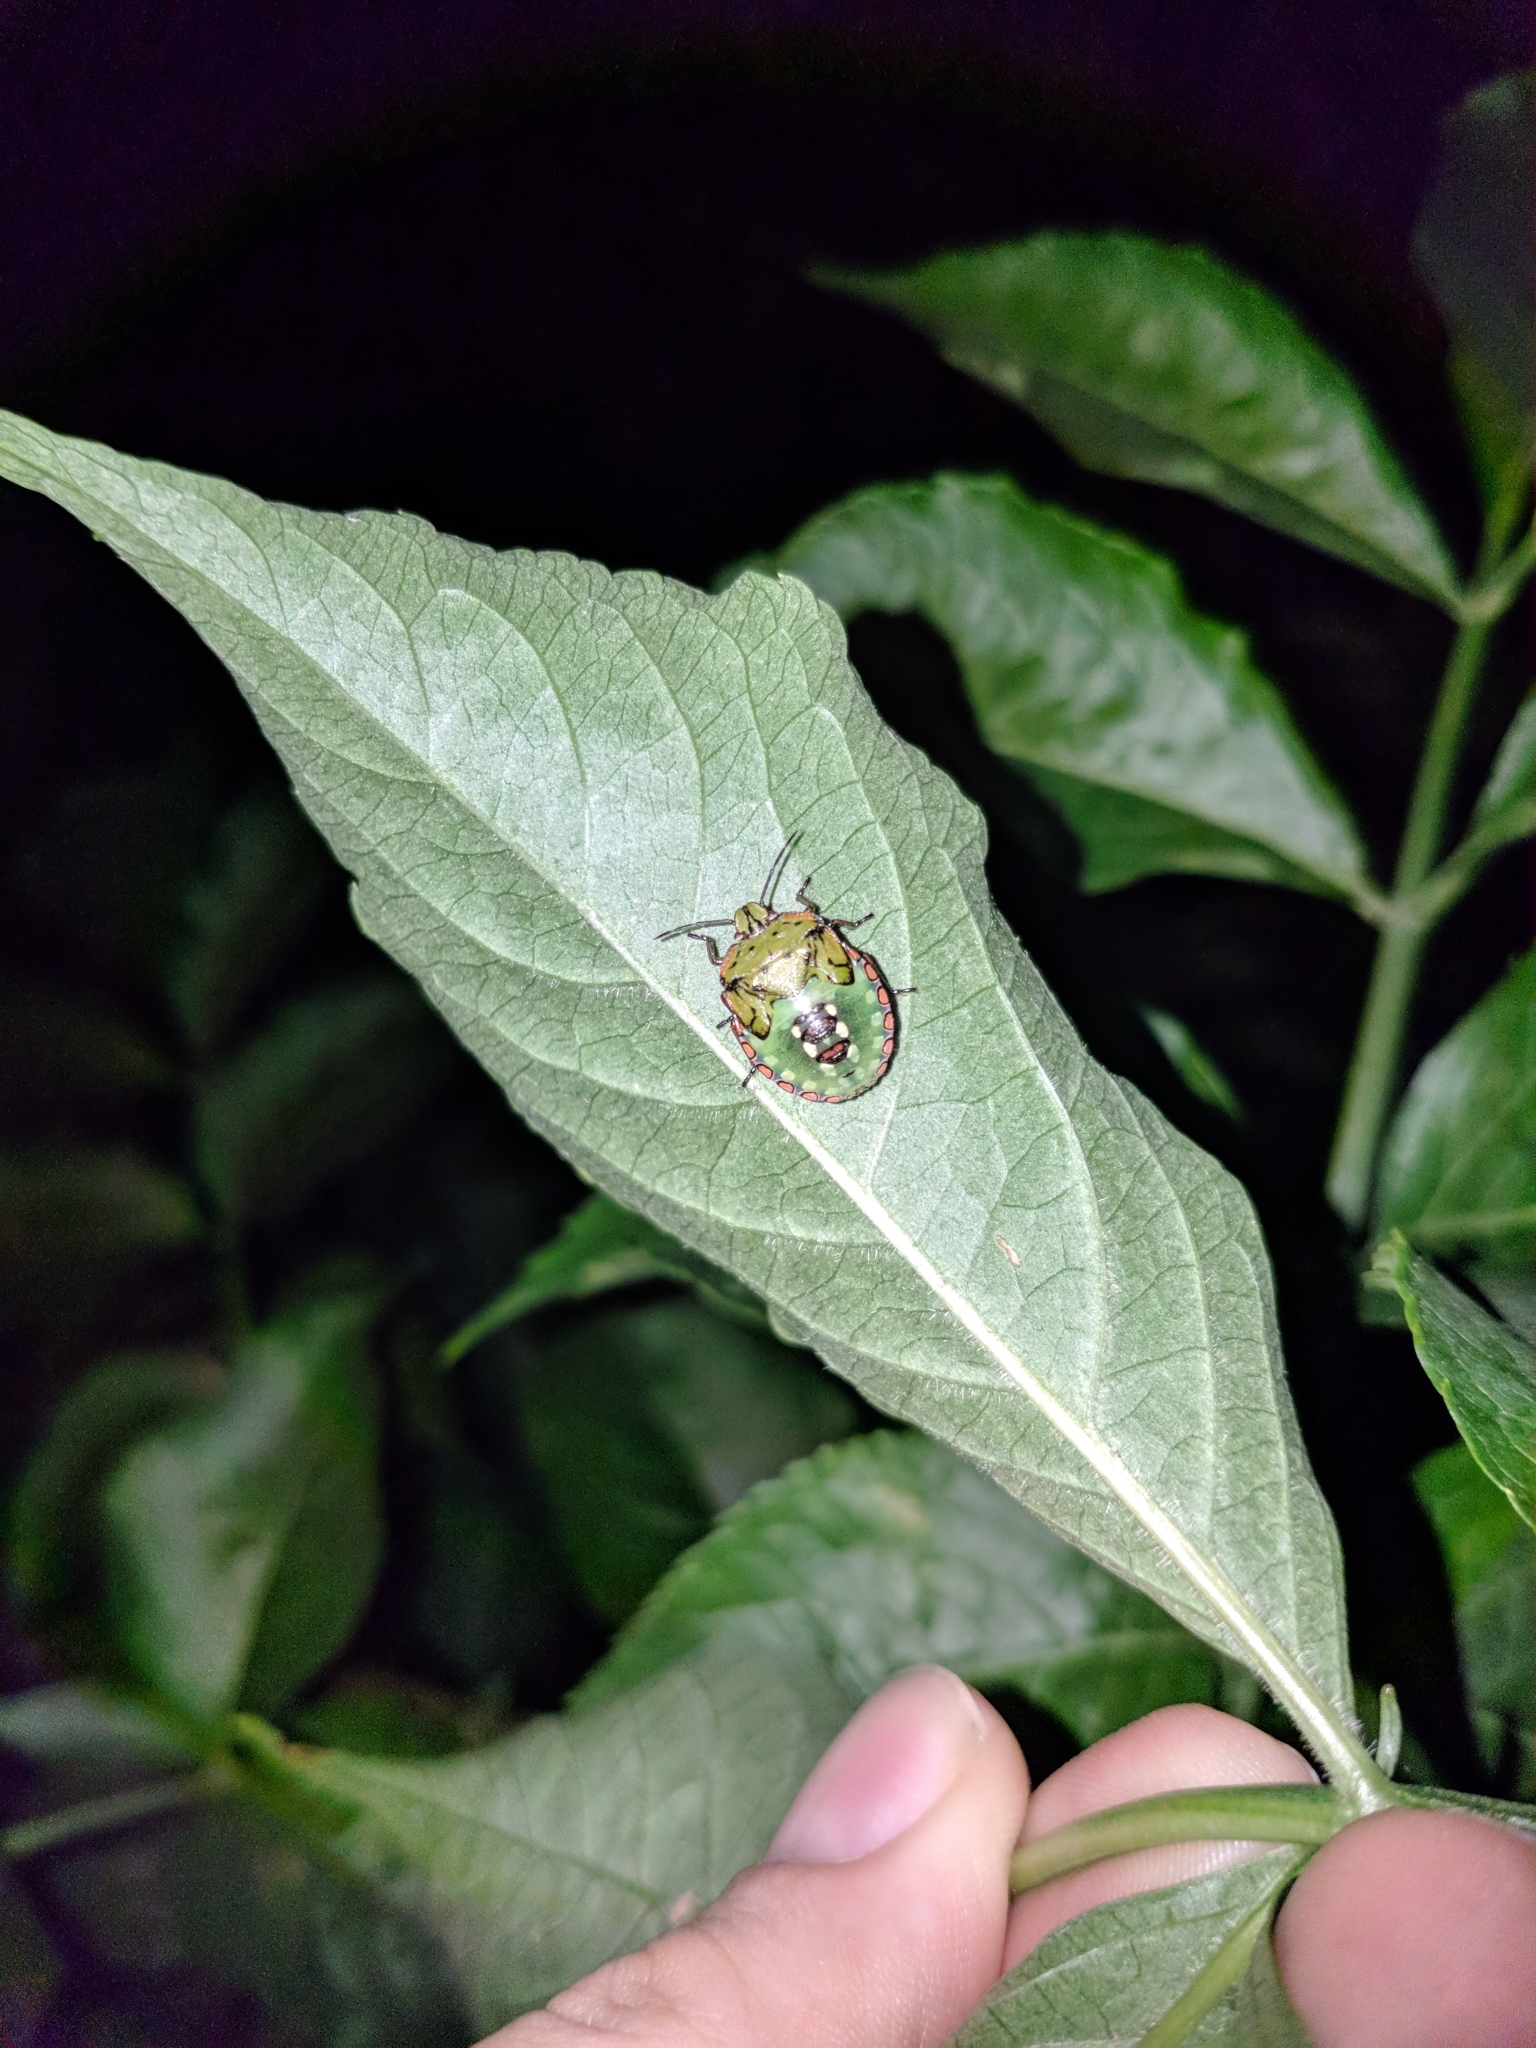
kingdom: Animalia
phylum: Arthropoda
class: Insecta
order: Hemiptera
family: Pentatomidae
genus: Nezara
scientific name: Nezara viridula
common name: Southern green stink bug
